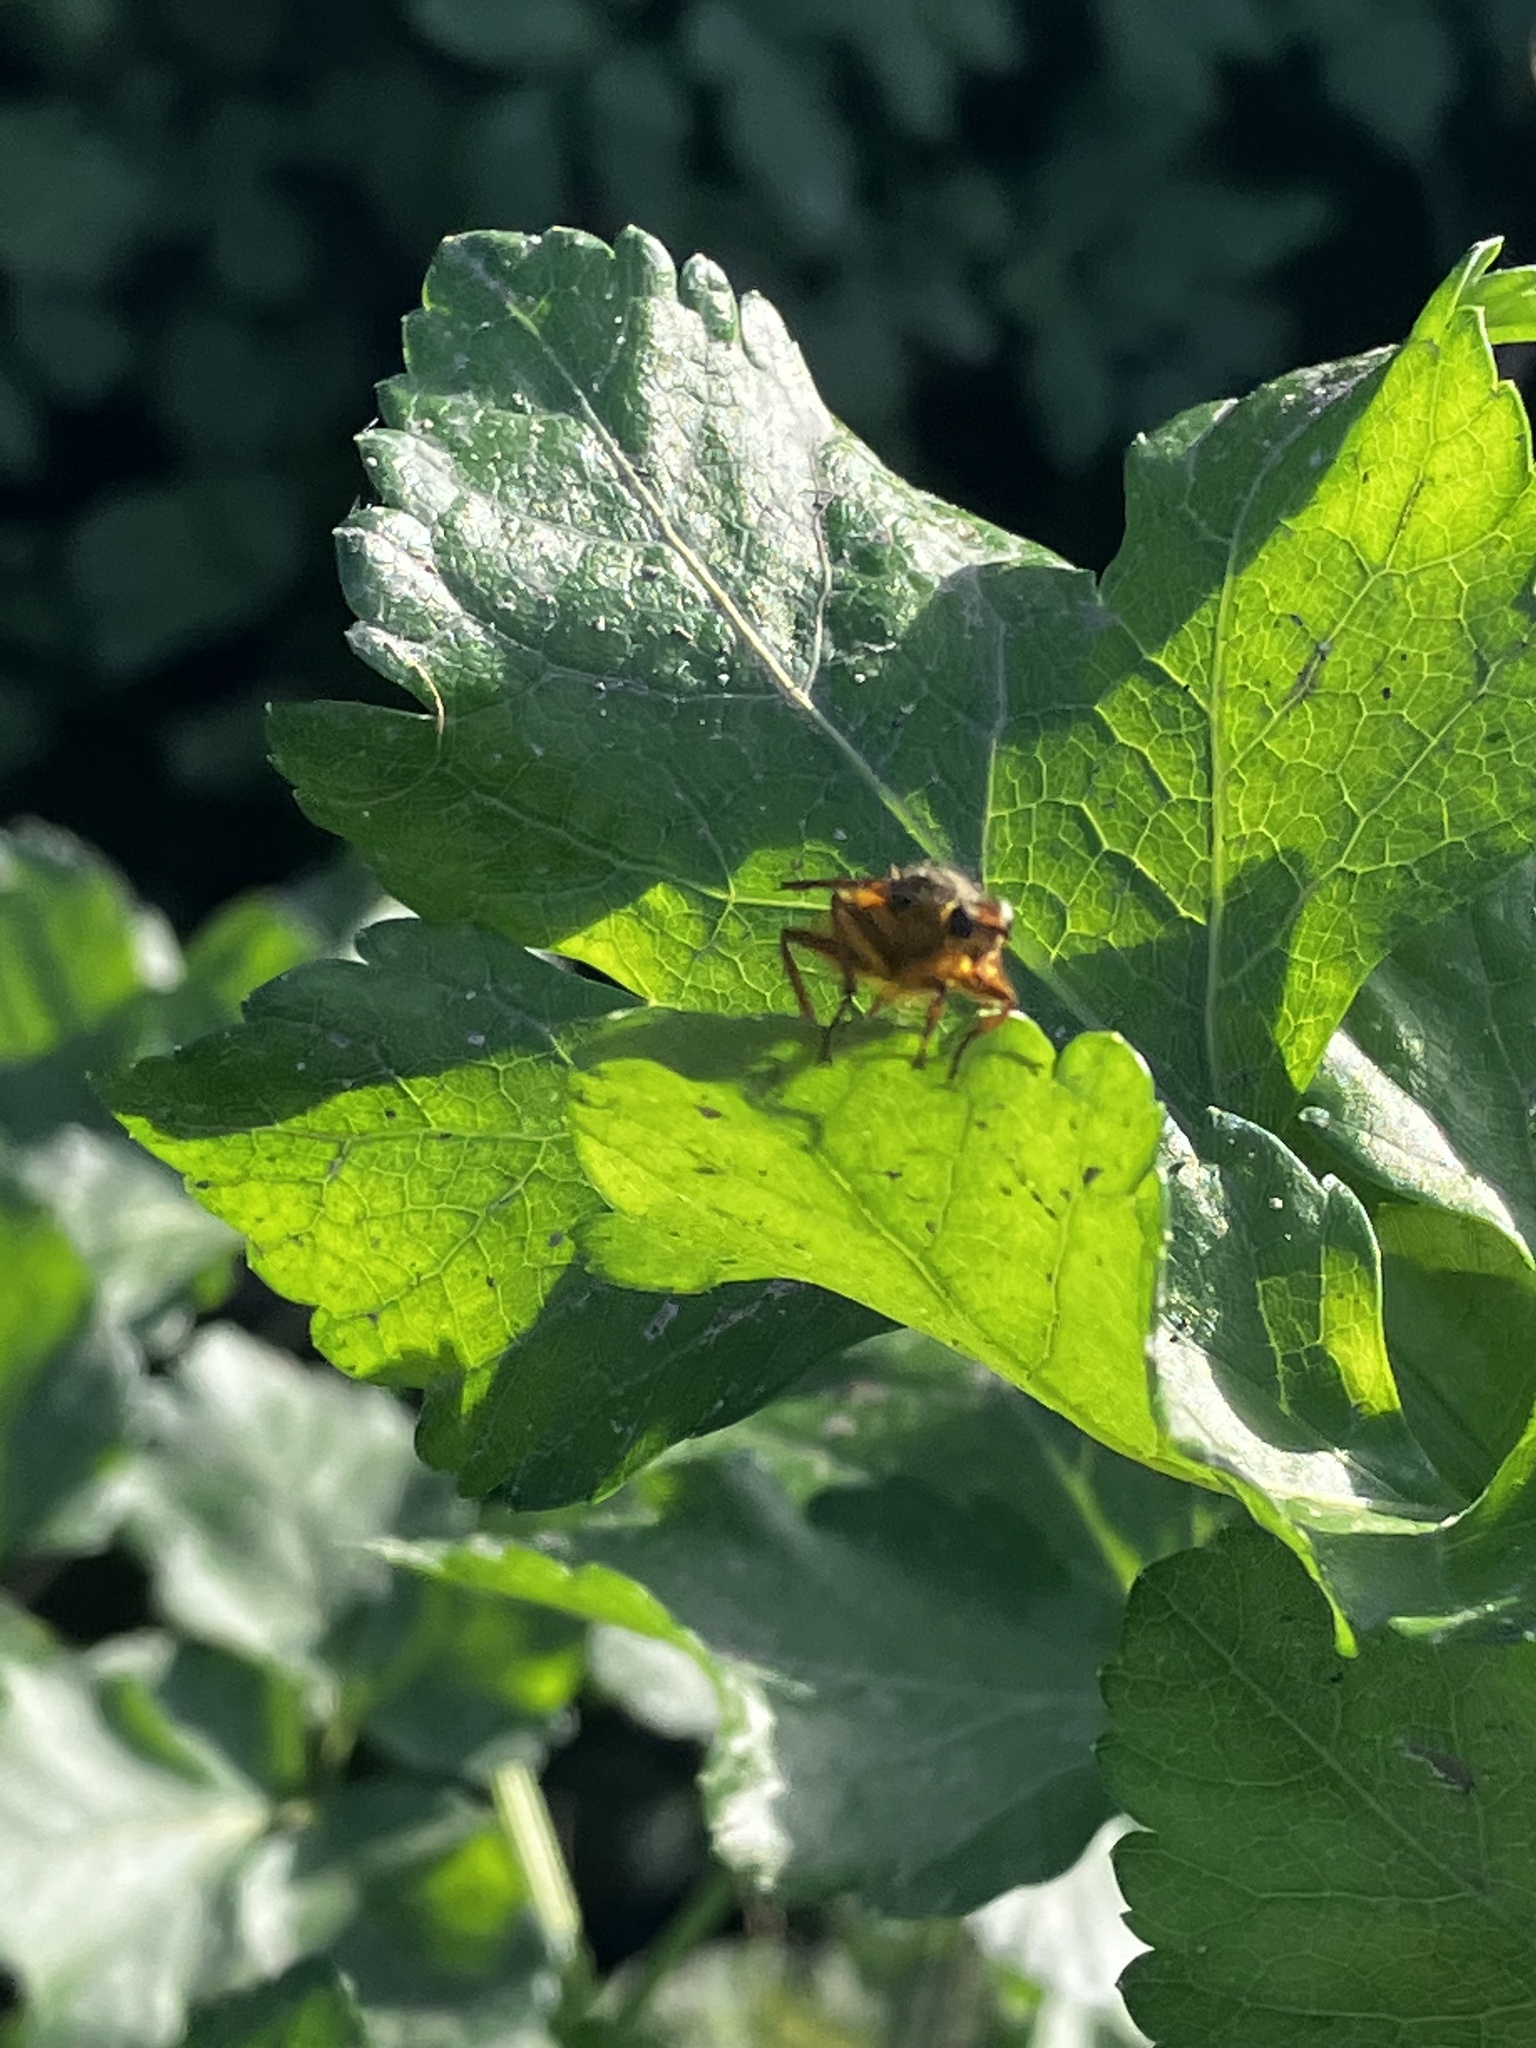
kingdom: Animalia
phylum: Arthropoda
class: Insecta
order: Diptera
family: Scathophagidae
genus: Scathophaga
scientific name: Scathophaga stercoraria
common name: Yellow dung fly
